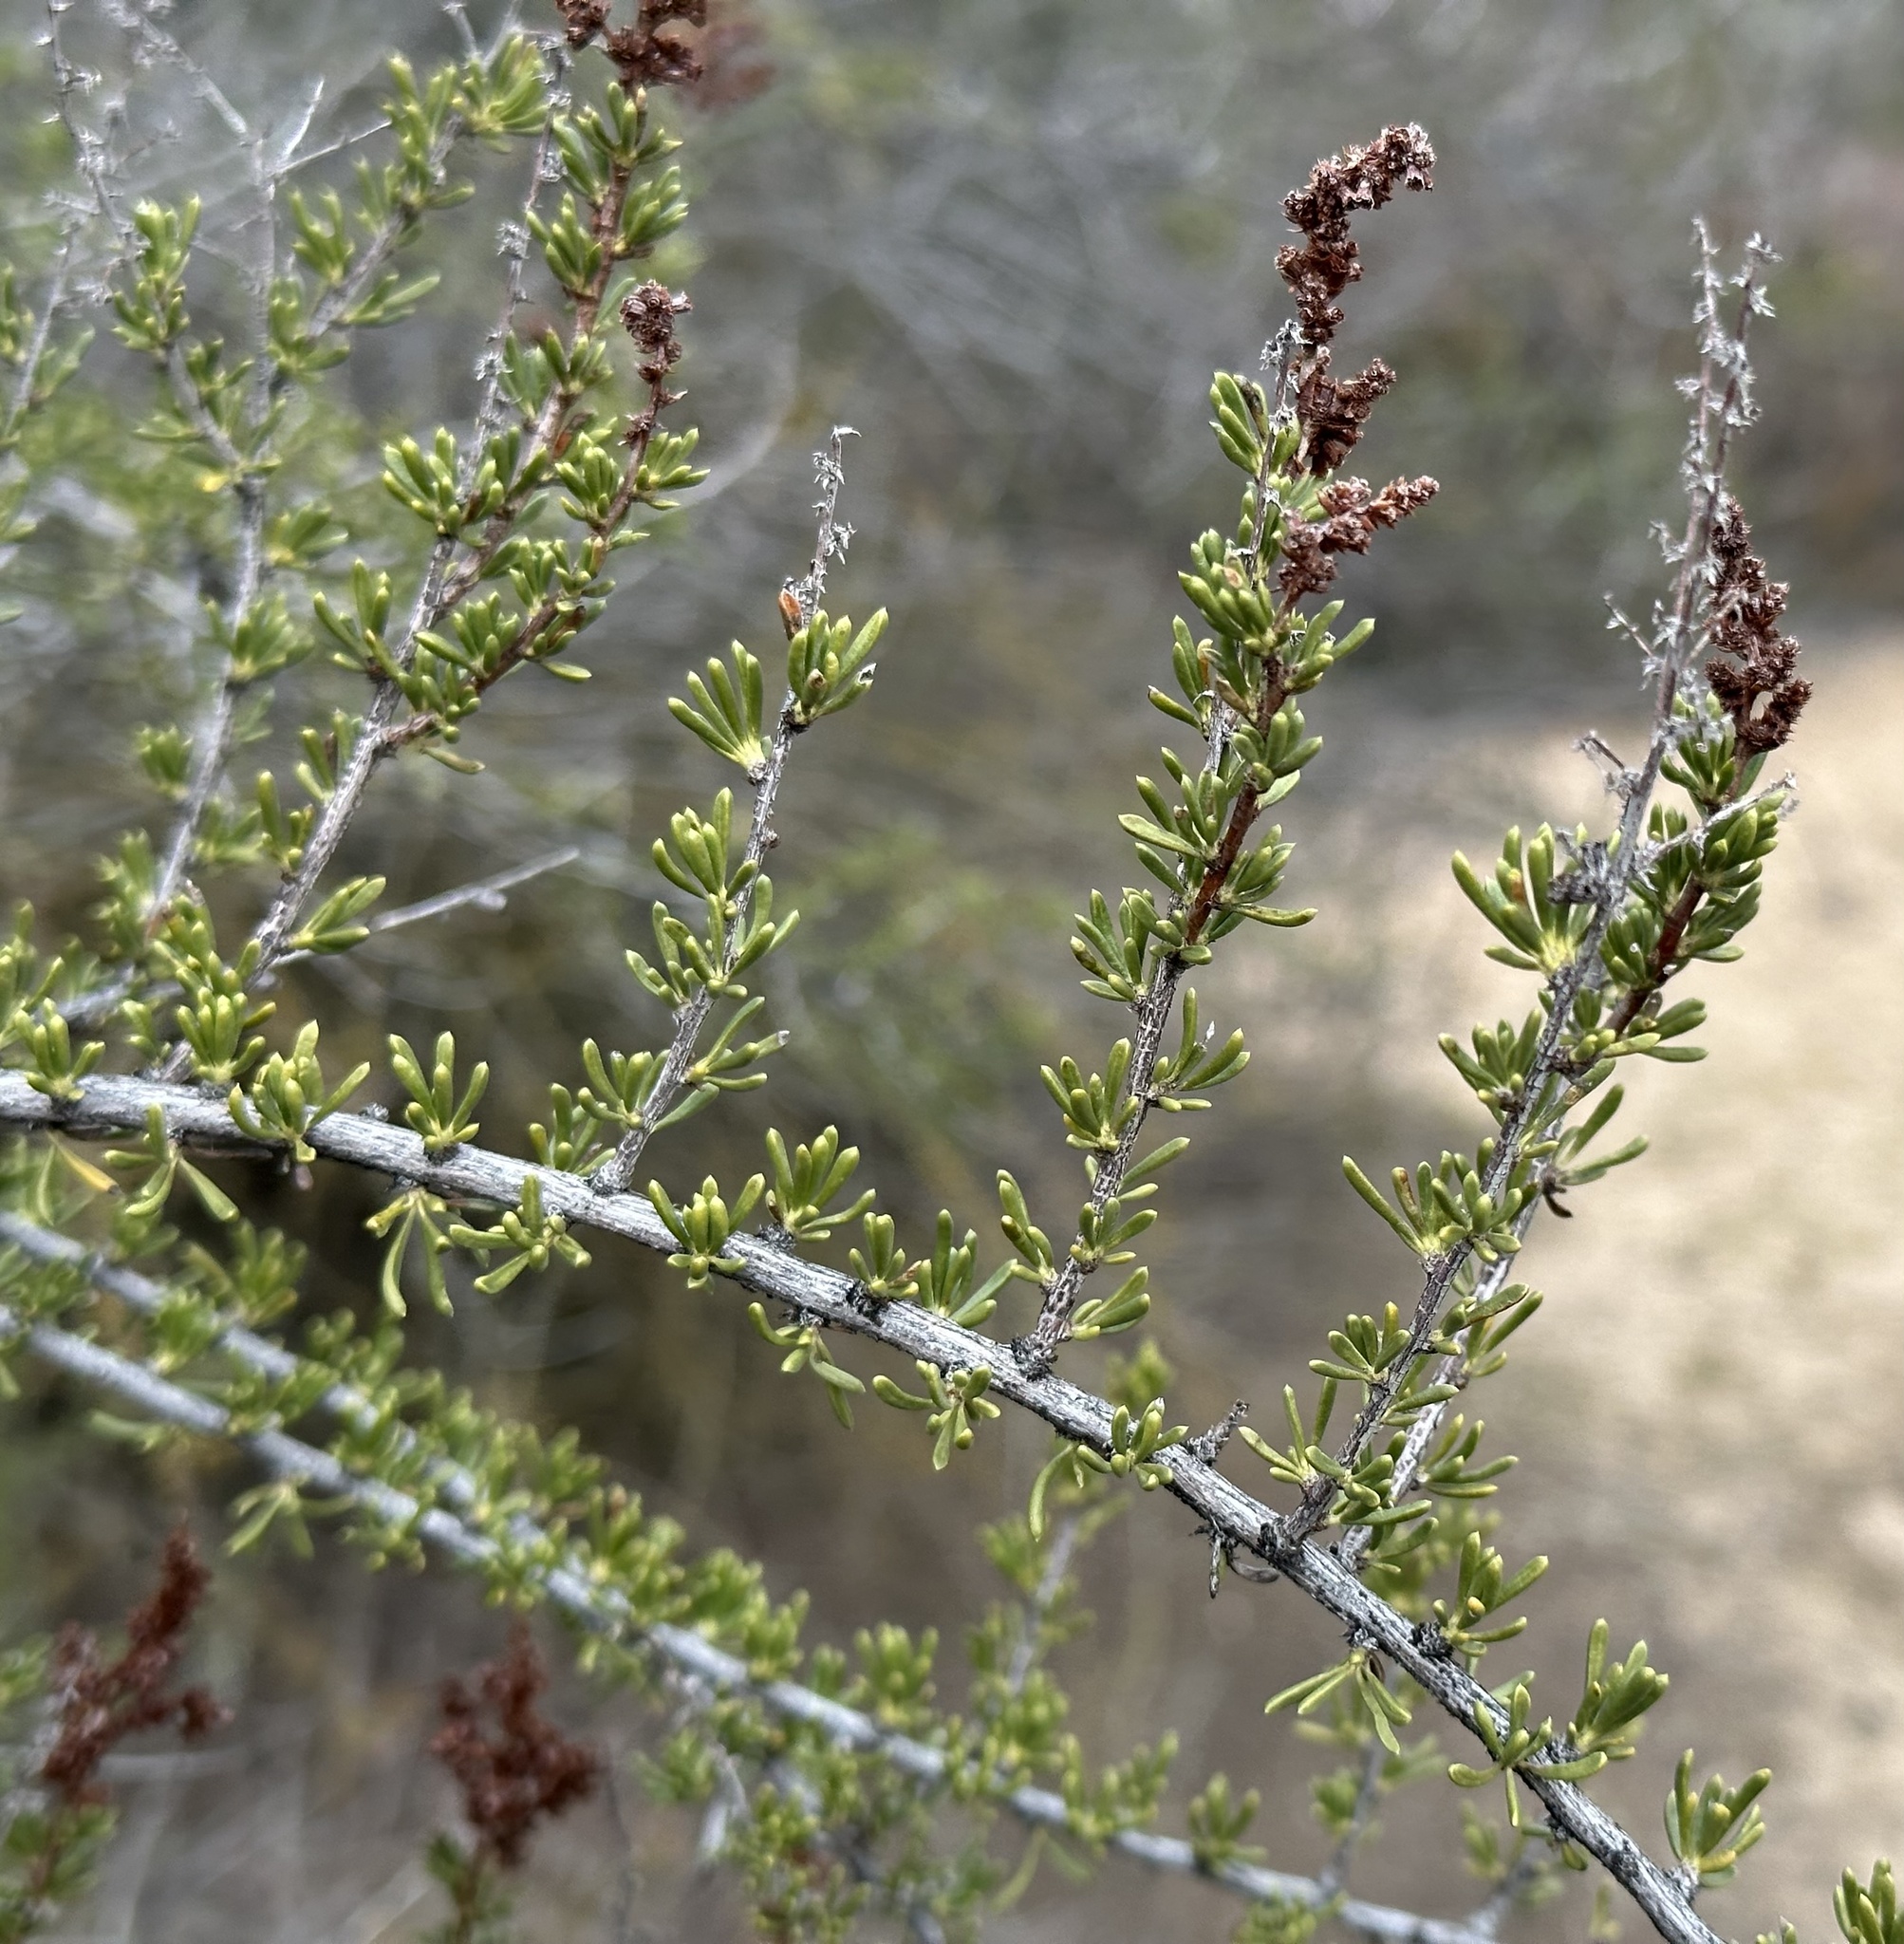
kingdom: Plantae
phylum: Tracheophyta
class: Magnoliopsida
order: Rosales
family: Rosaceae
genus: Adenostoma
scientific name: Adenostoma fasciculatum
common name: Chamise
